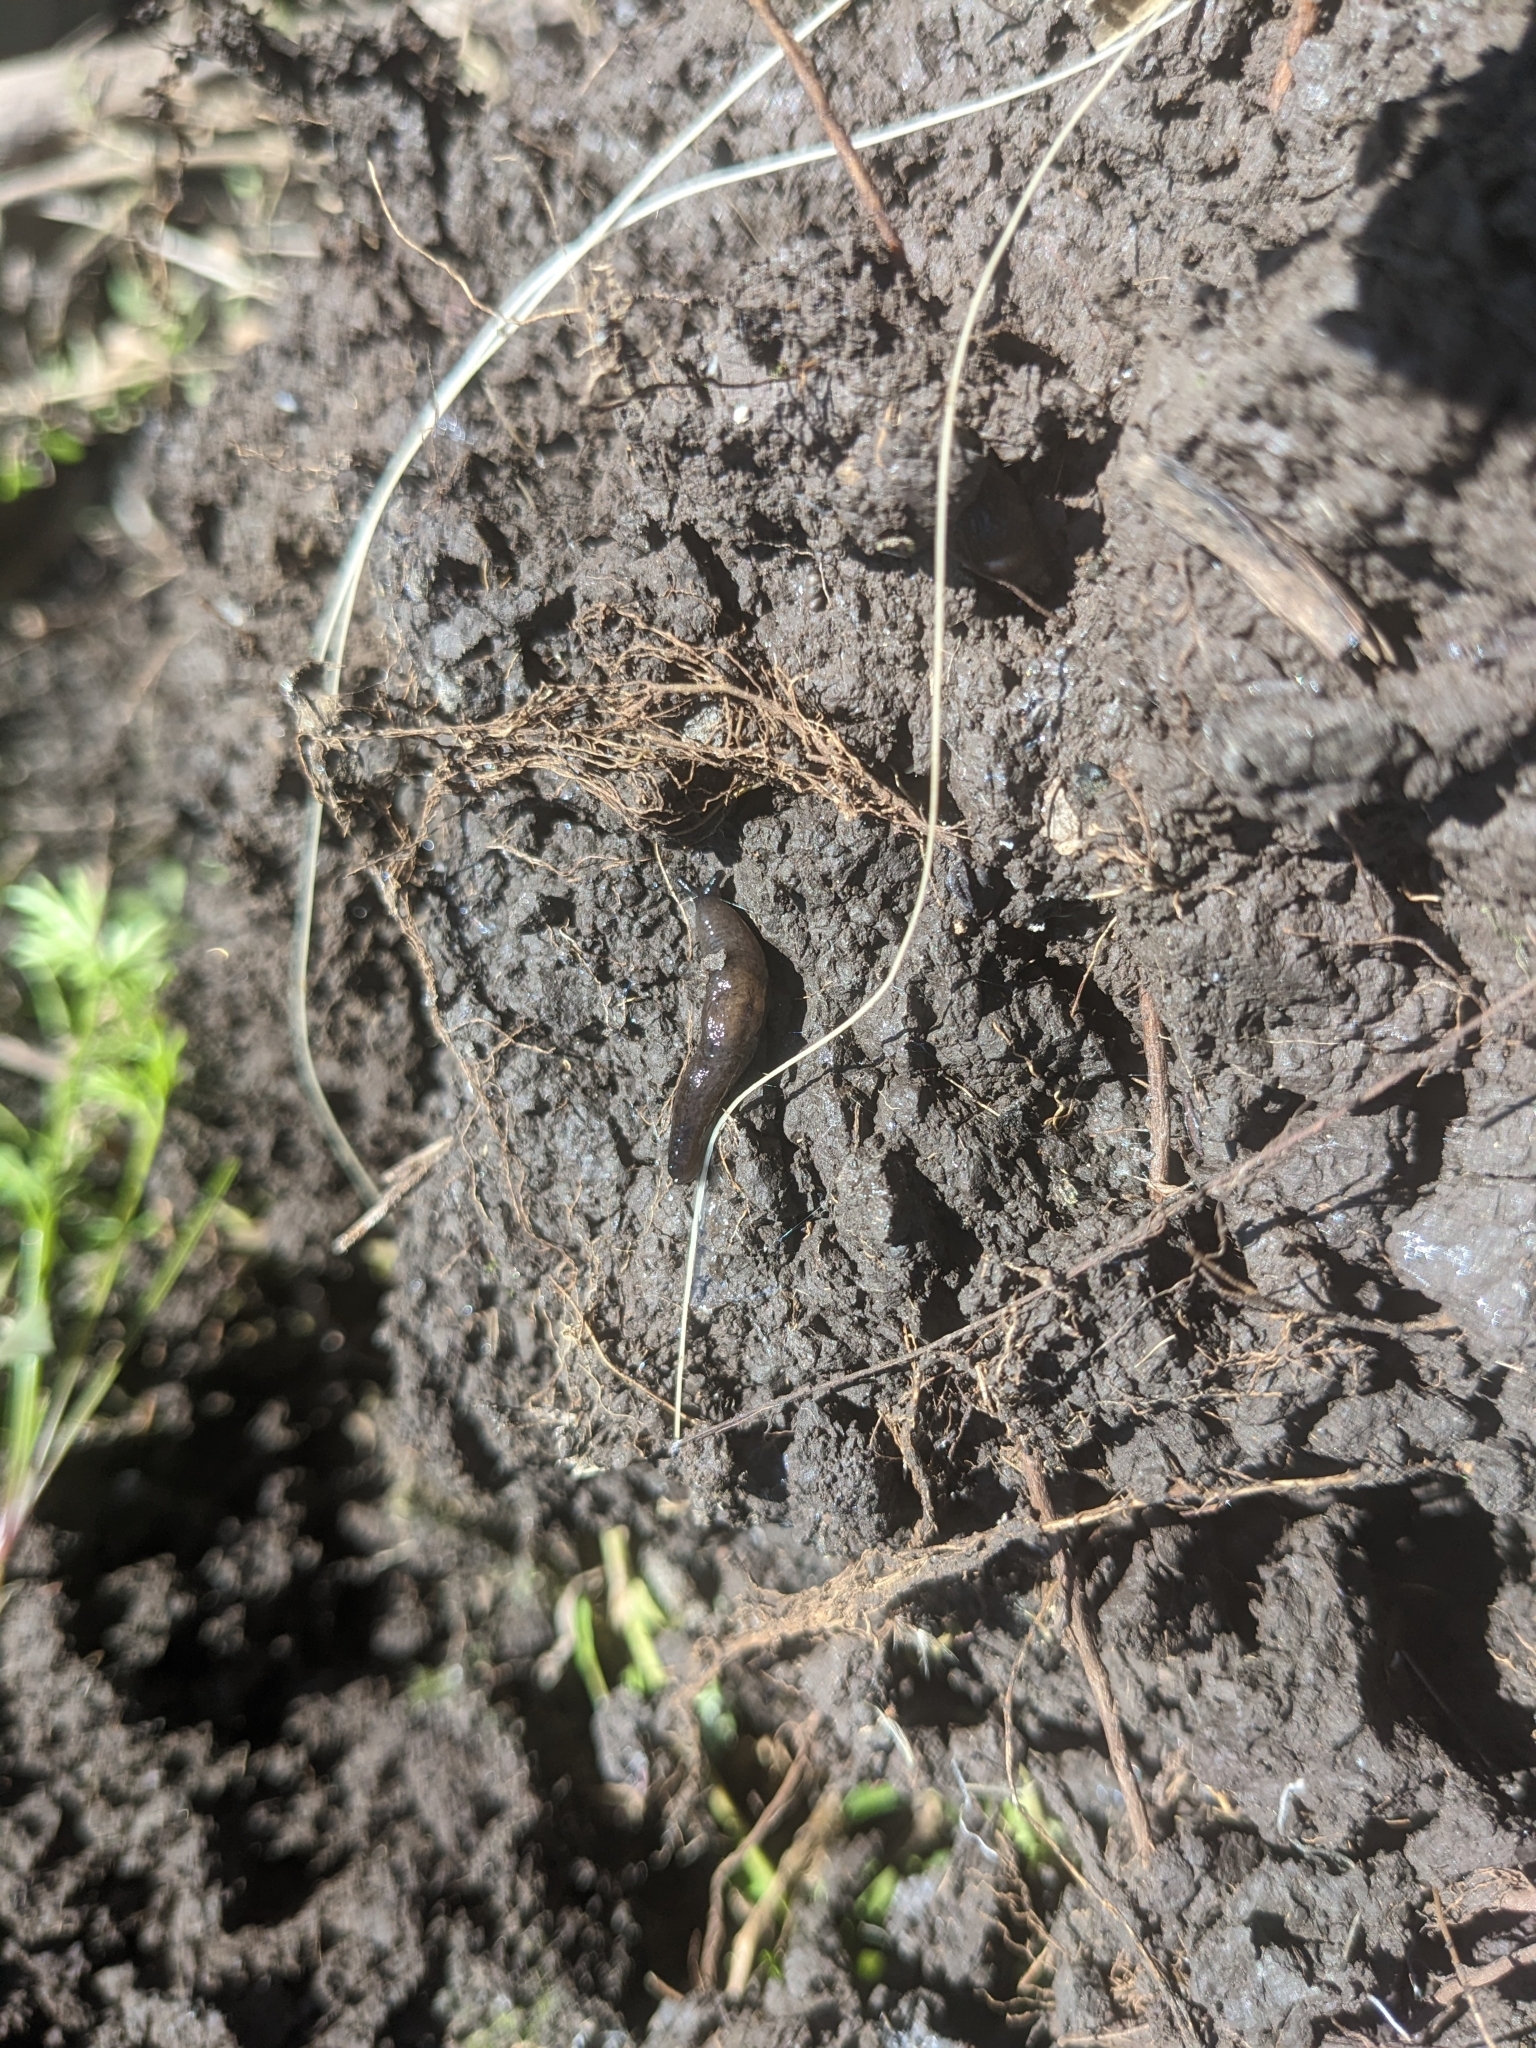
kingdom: Animalia
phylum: Mollusca
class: Gastropoda
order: Stylommatophora
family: Agriolimacidae
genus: Deroceras
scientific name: Deroceras laeve
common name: Marsh slug
